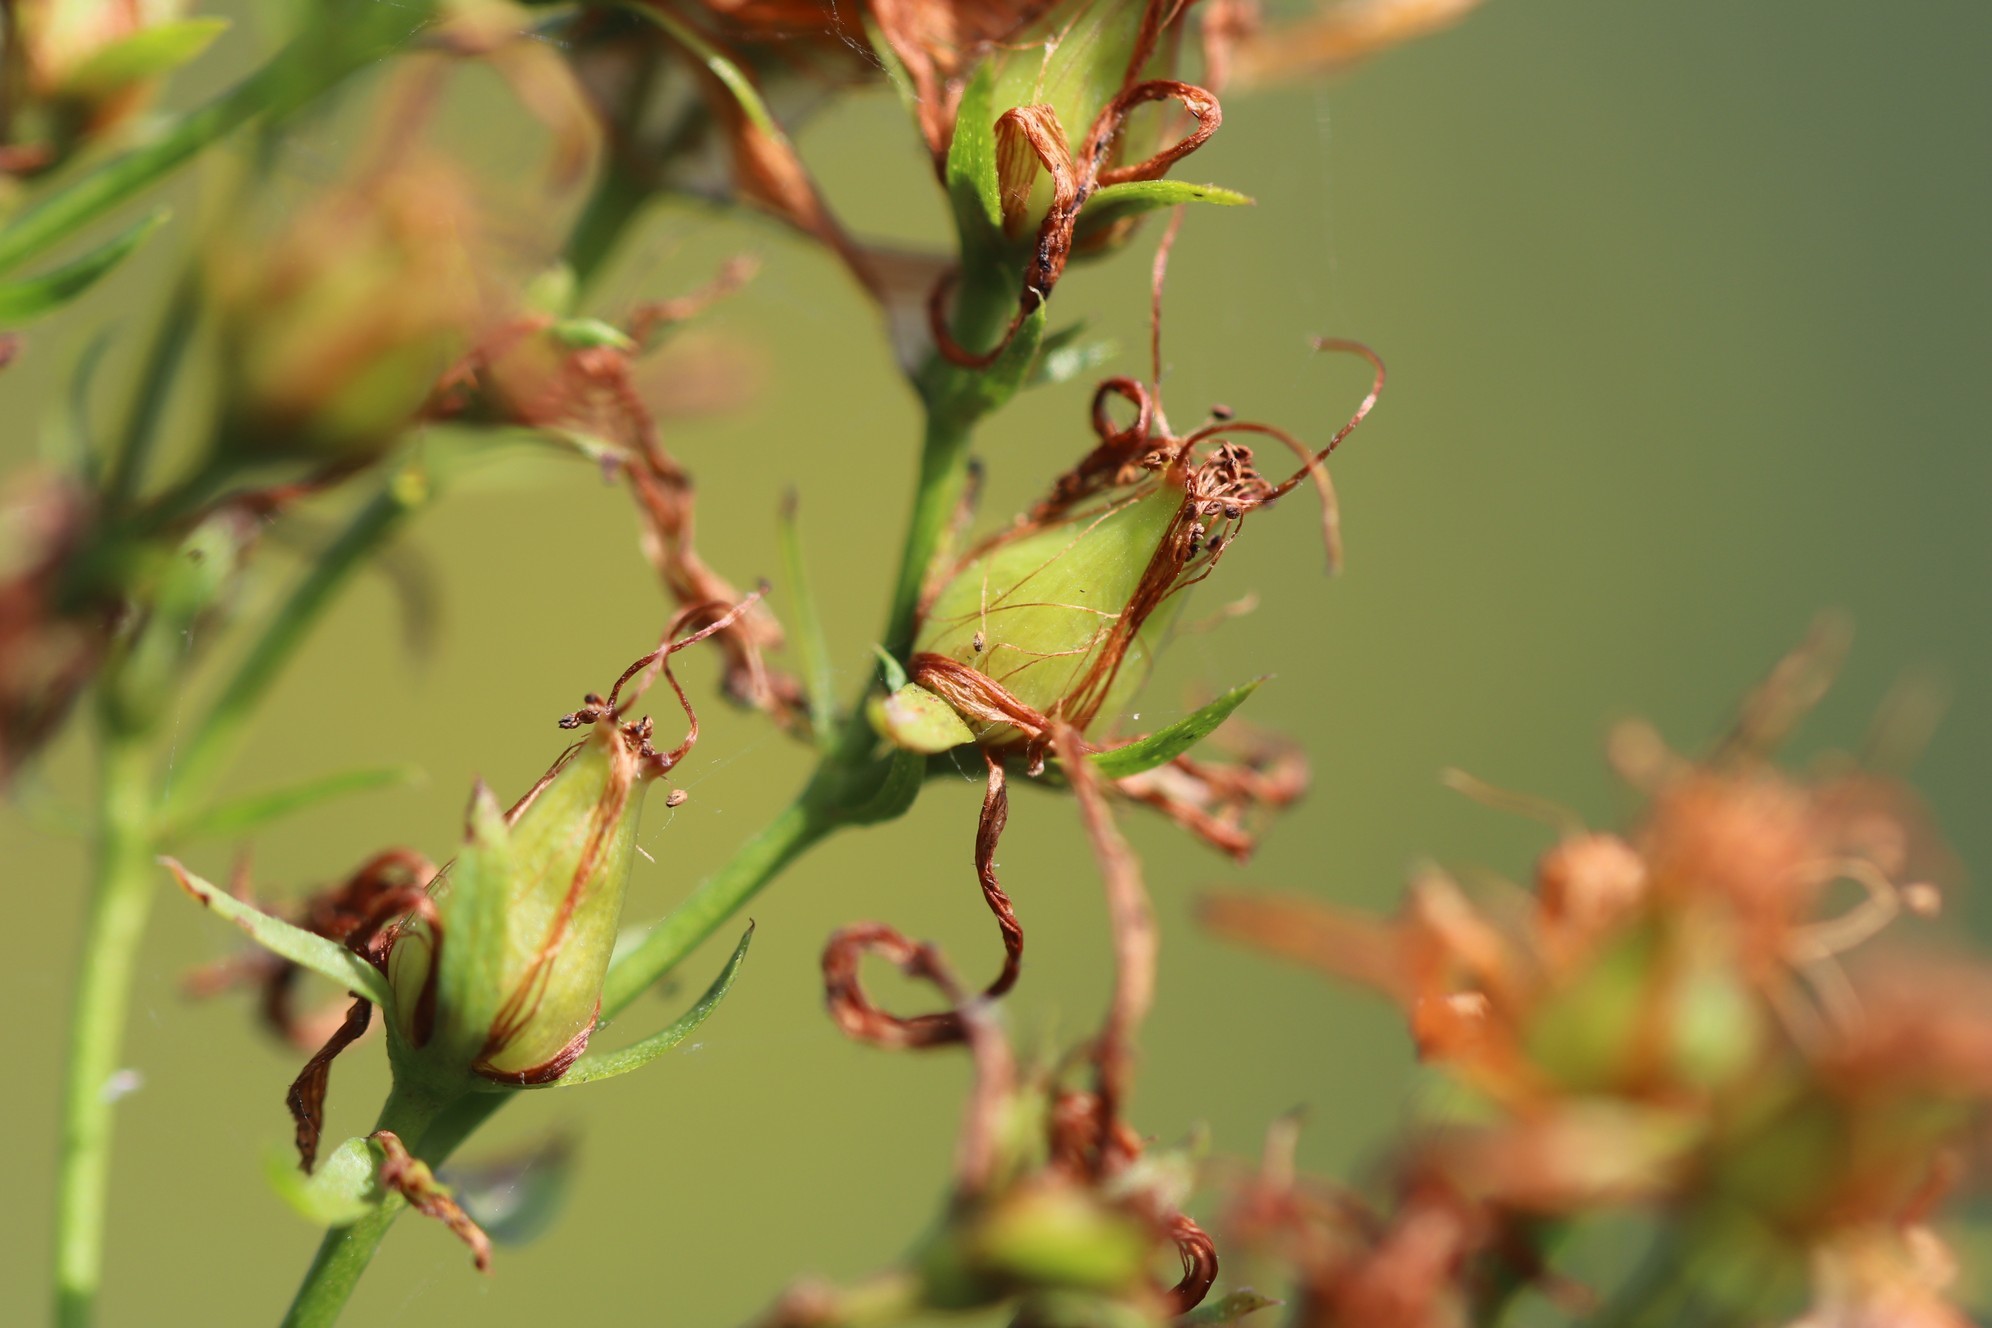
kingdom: Plantae
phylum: Tracheophyta
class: Magnoliopsida
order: Malpighiales
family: Hypericaceae
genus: Hypericum
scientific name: Hypericum perforatum
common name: Common st. johnswort
